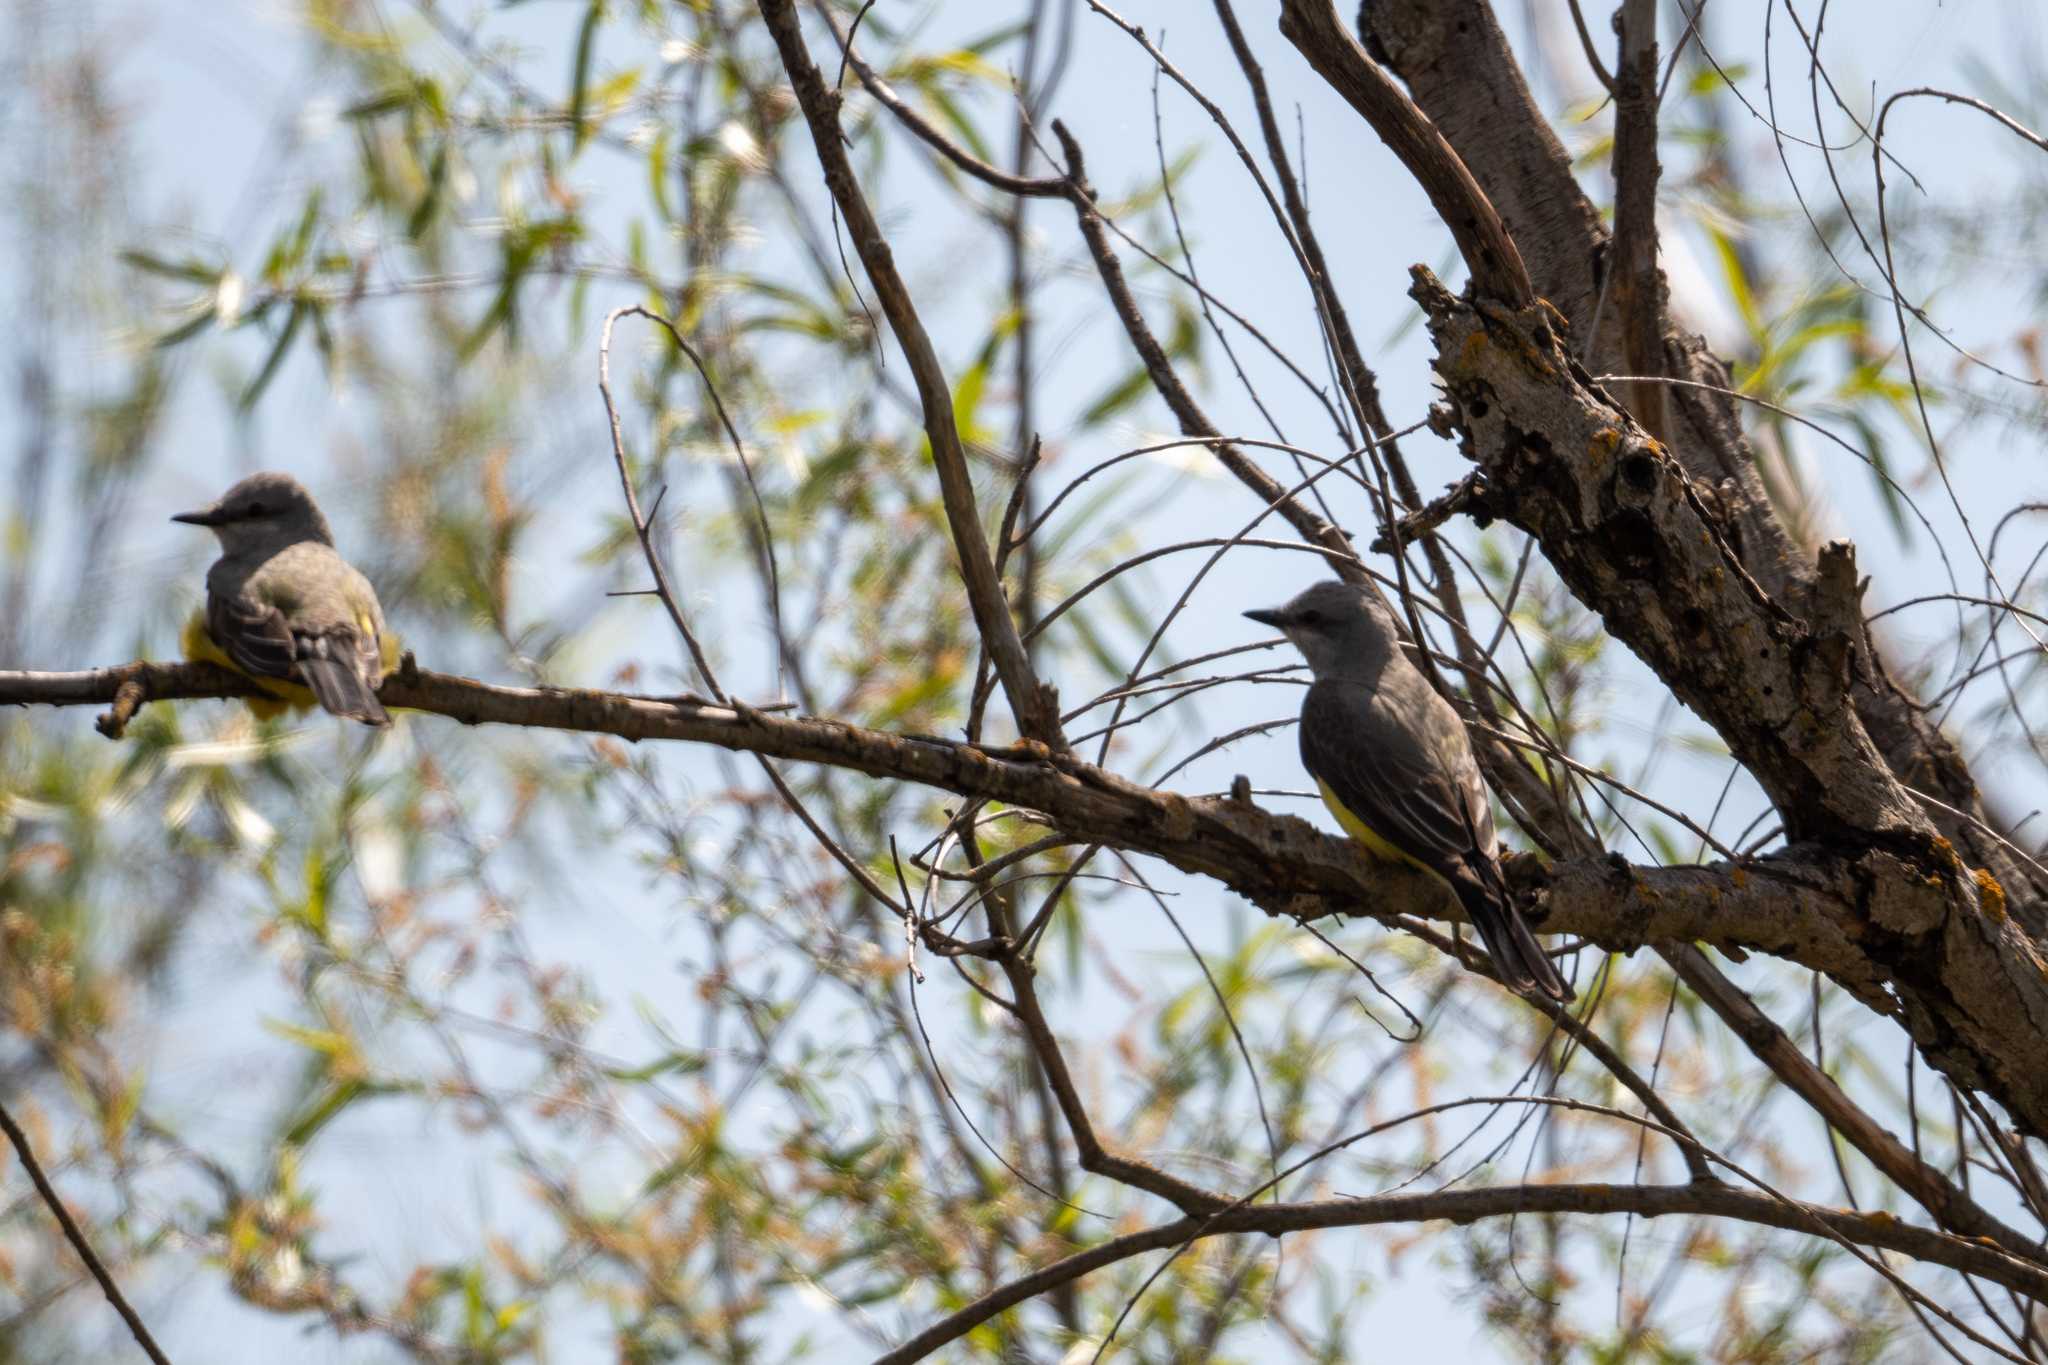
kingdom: Animalia
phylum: Chordata
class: Aves
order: Passeriformes
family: Tyrannidae
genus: Tyrannus
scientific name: Tyrannus verticalis
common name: Western kingbird
